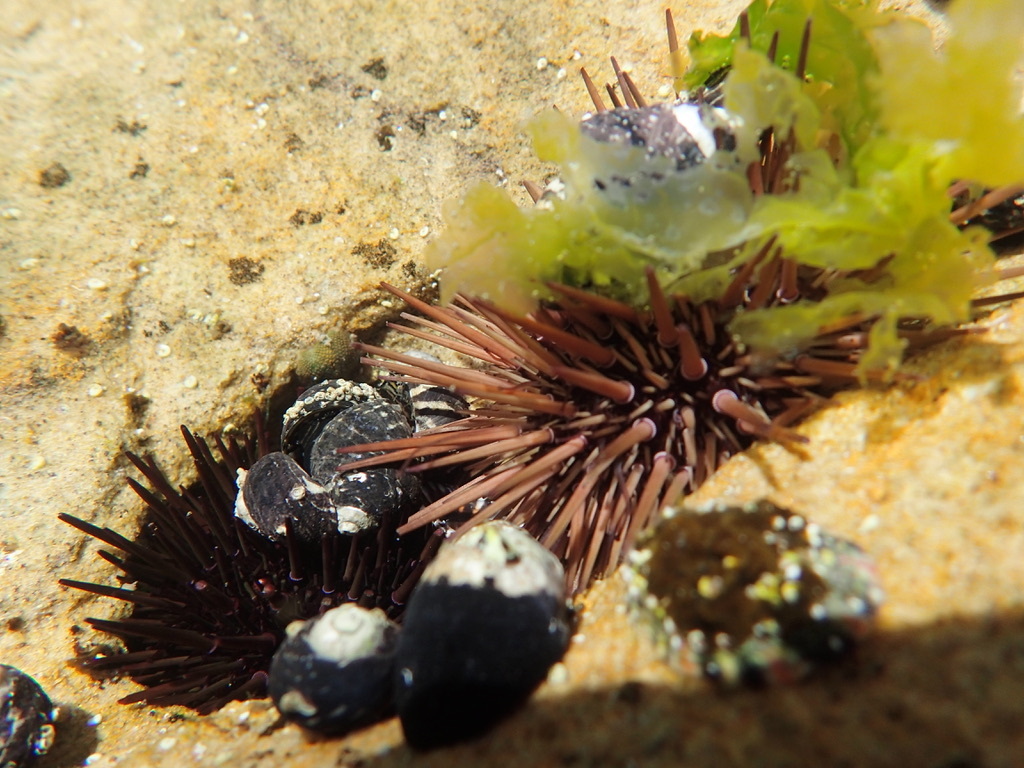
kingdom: Animalia
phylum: Echinodermata
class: Echinoidea
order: Camarodonta
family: Echinometridae
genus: Heliocidaris
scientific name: Heliocidaris erythrogramma
